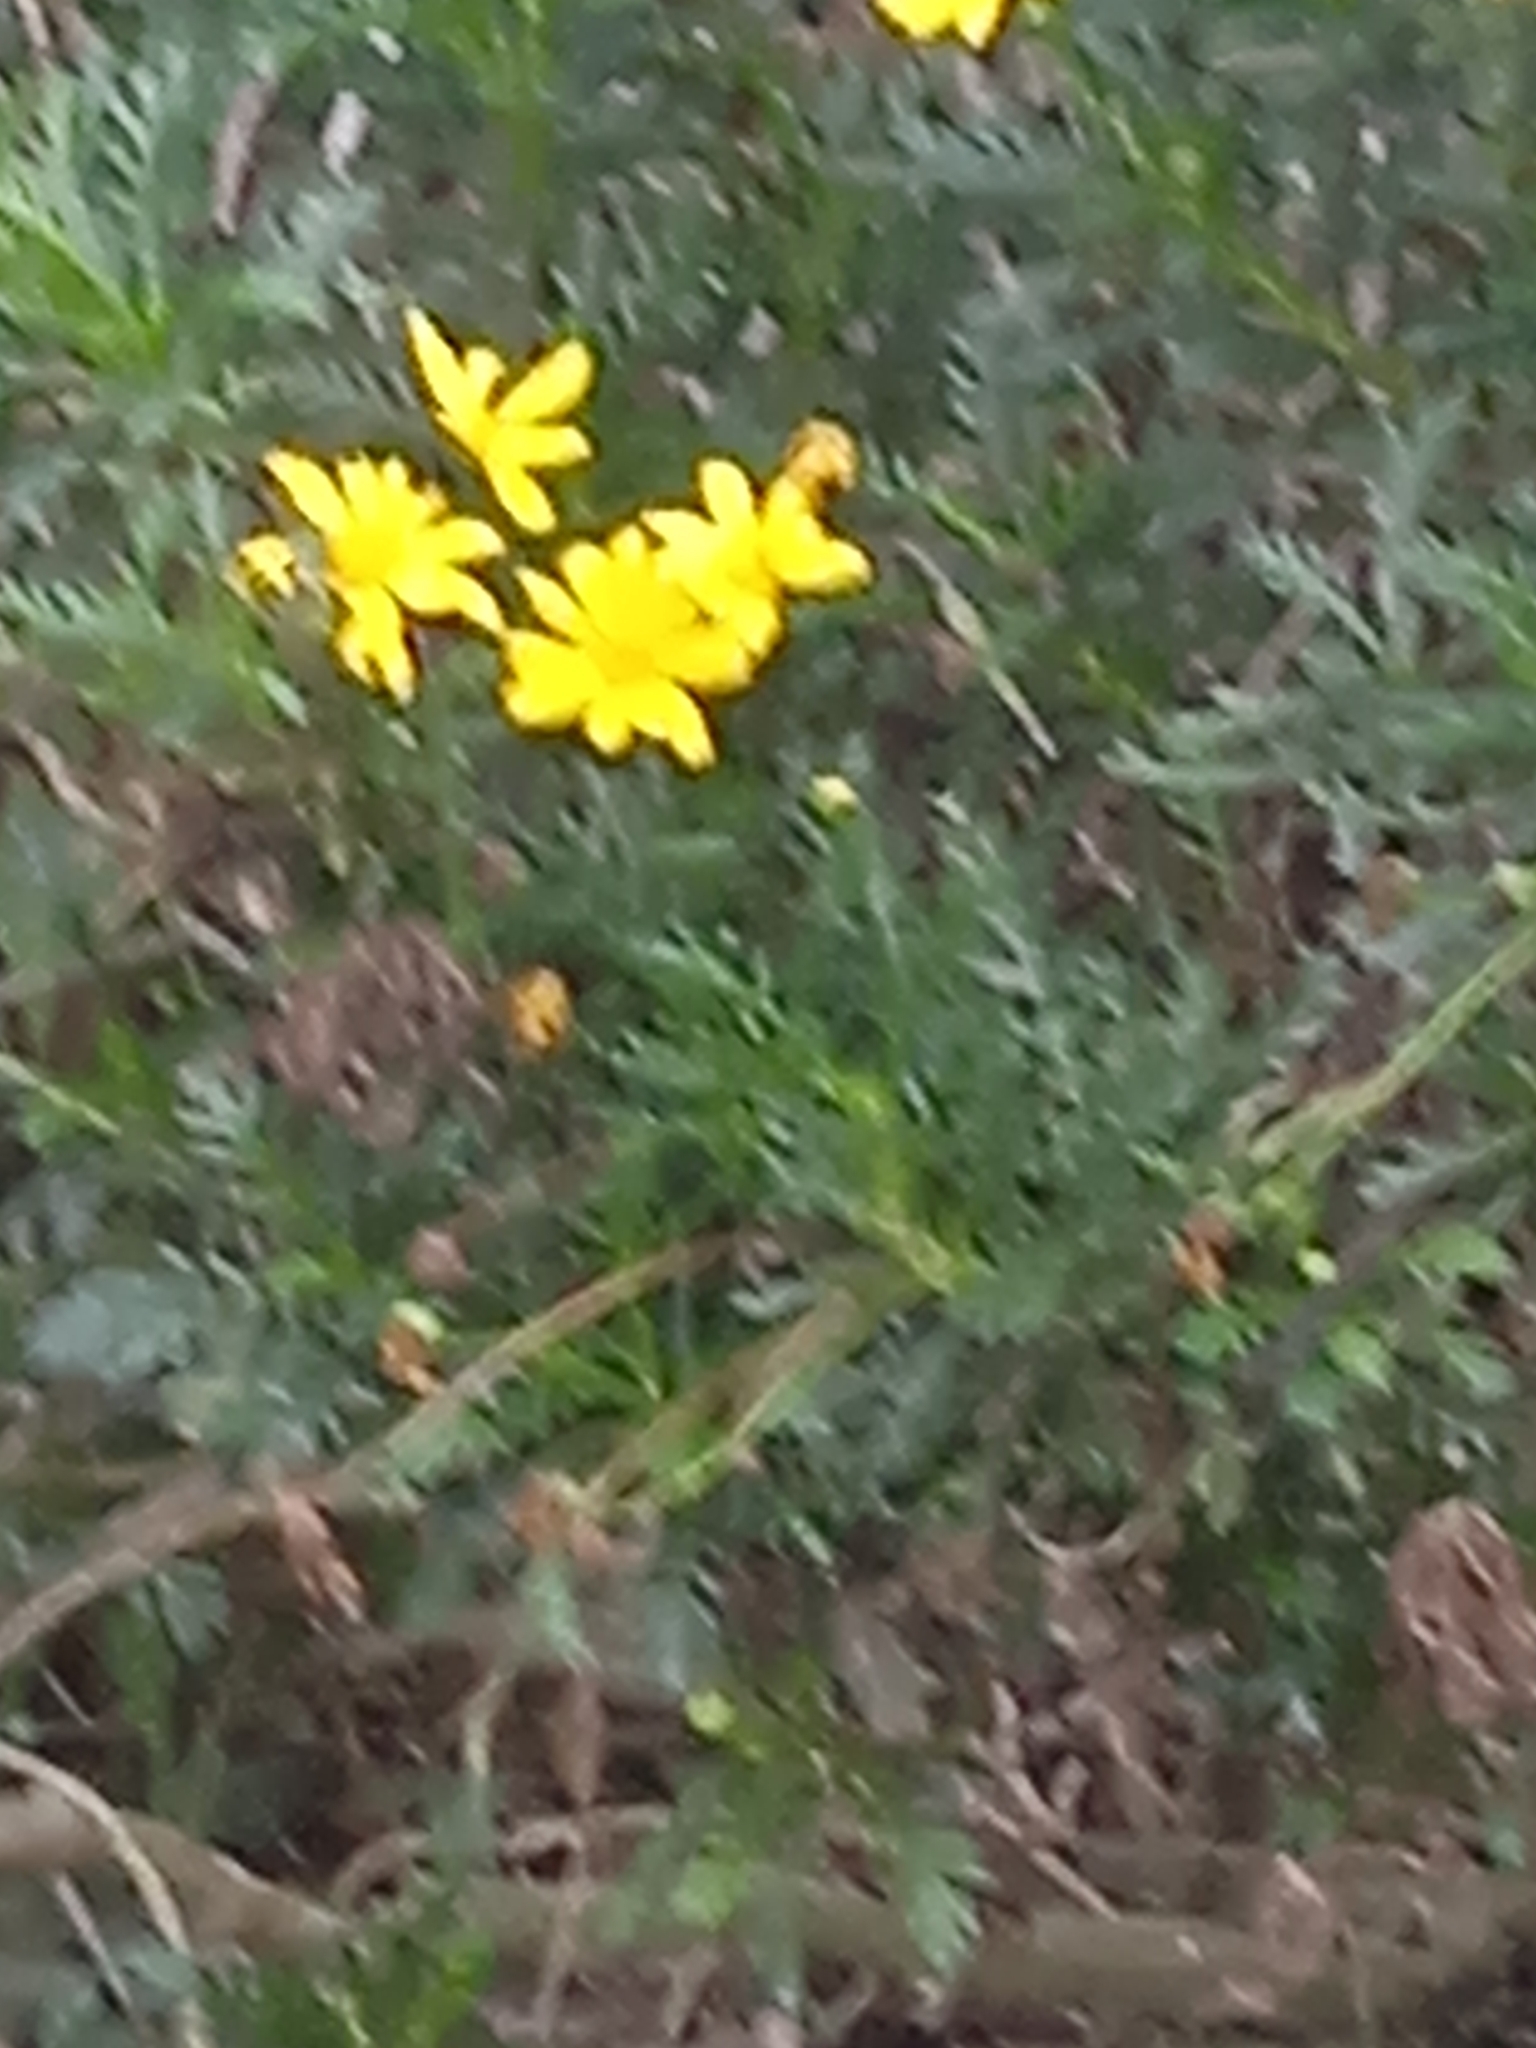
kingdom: Plantae
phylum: Tracheophyta
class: Magnoliopsida
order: Asterales
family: Asteraceae
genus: Euryops
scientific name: Euryops pectinatus
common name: Gray-leaf euryops
